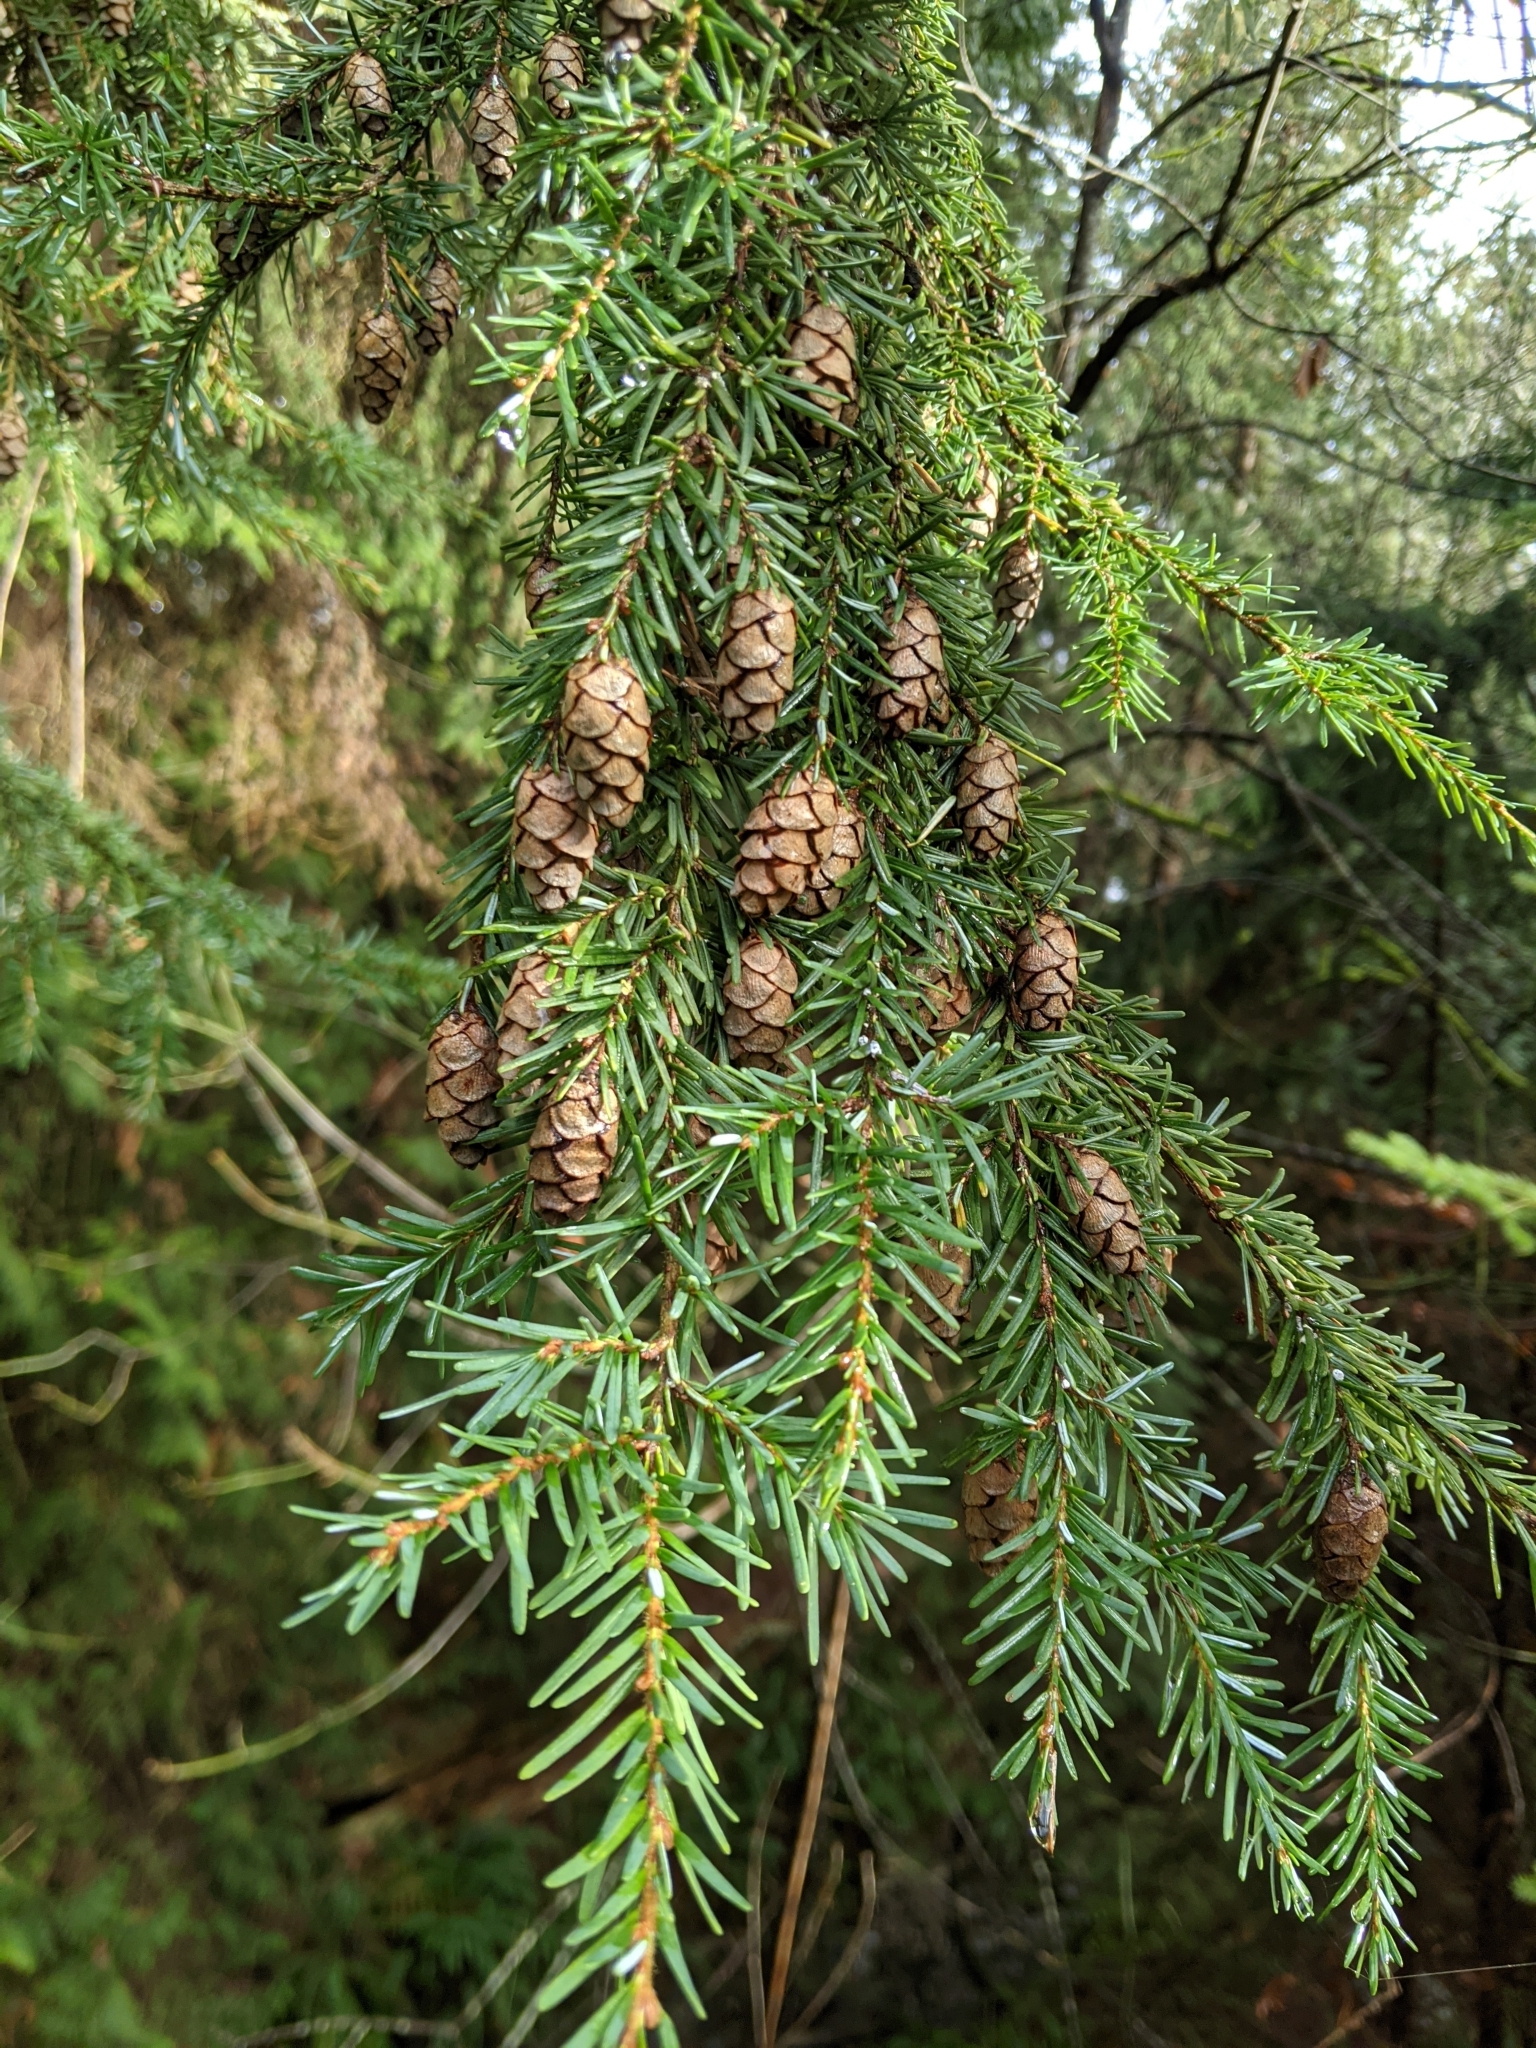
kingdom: Plantae
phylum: Tracheophyta
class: Pinopsida
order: Pinales
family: Pinaceae
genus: Tsuga
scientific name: Tsuga heterophylla
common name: Western hemlock
